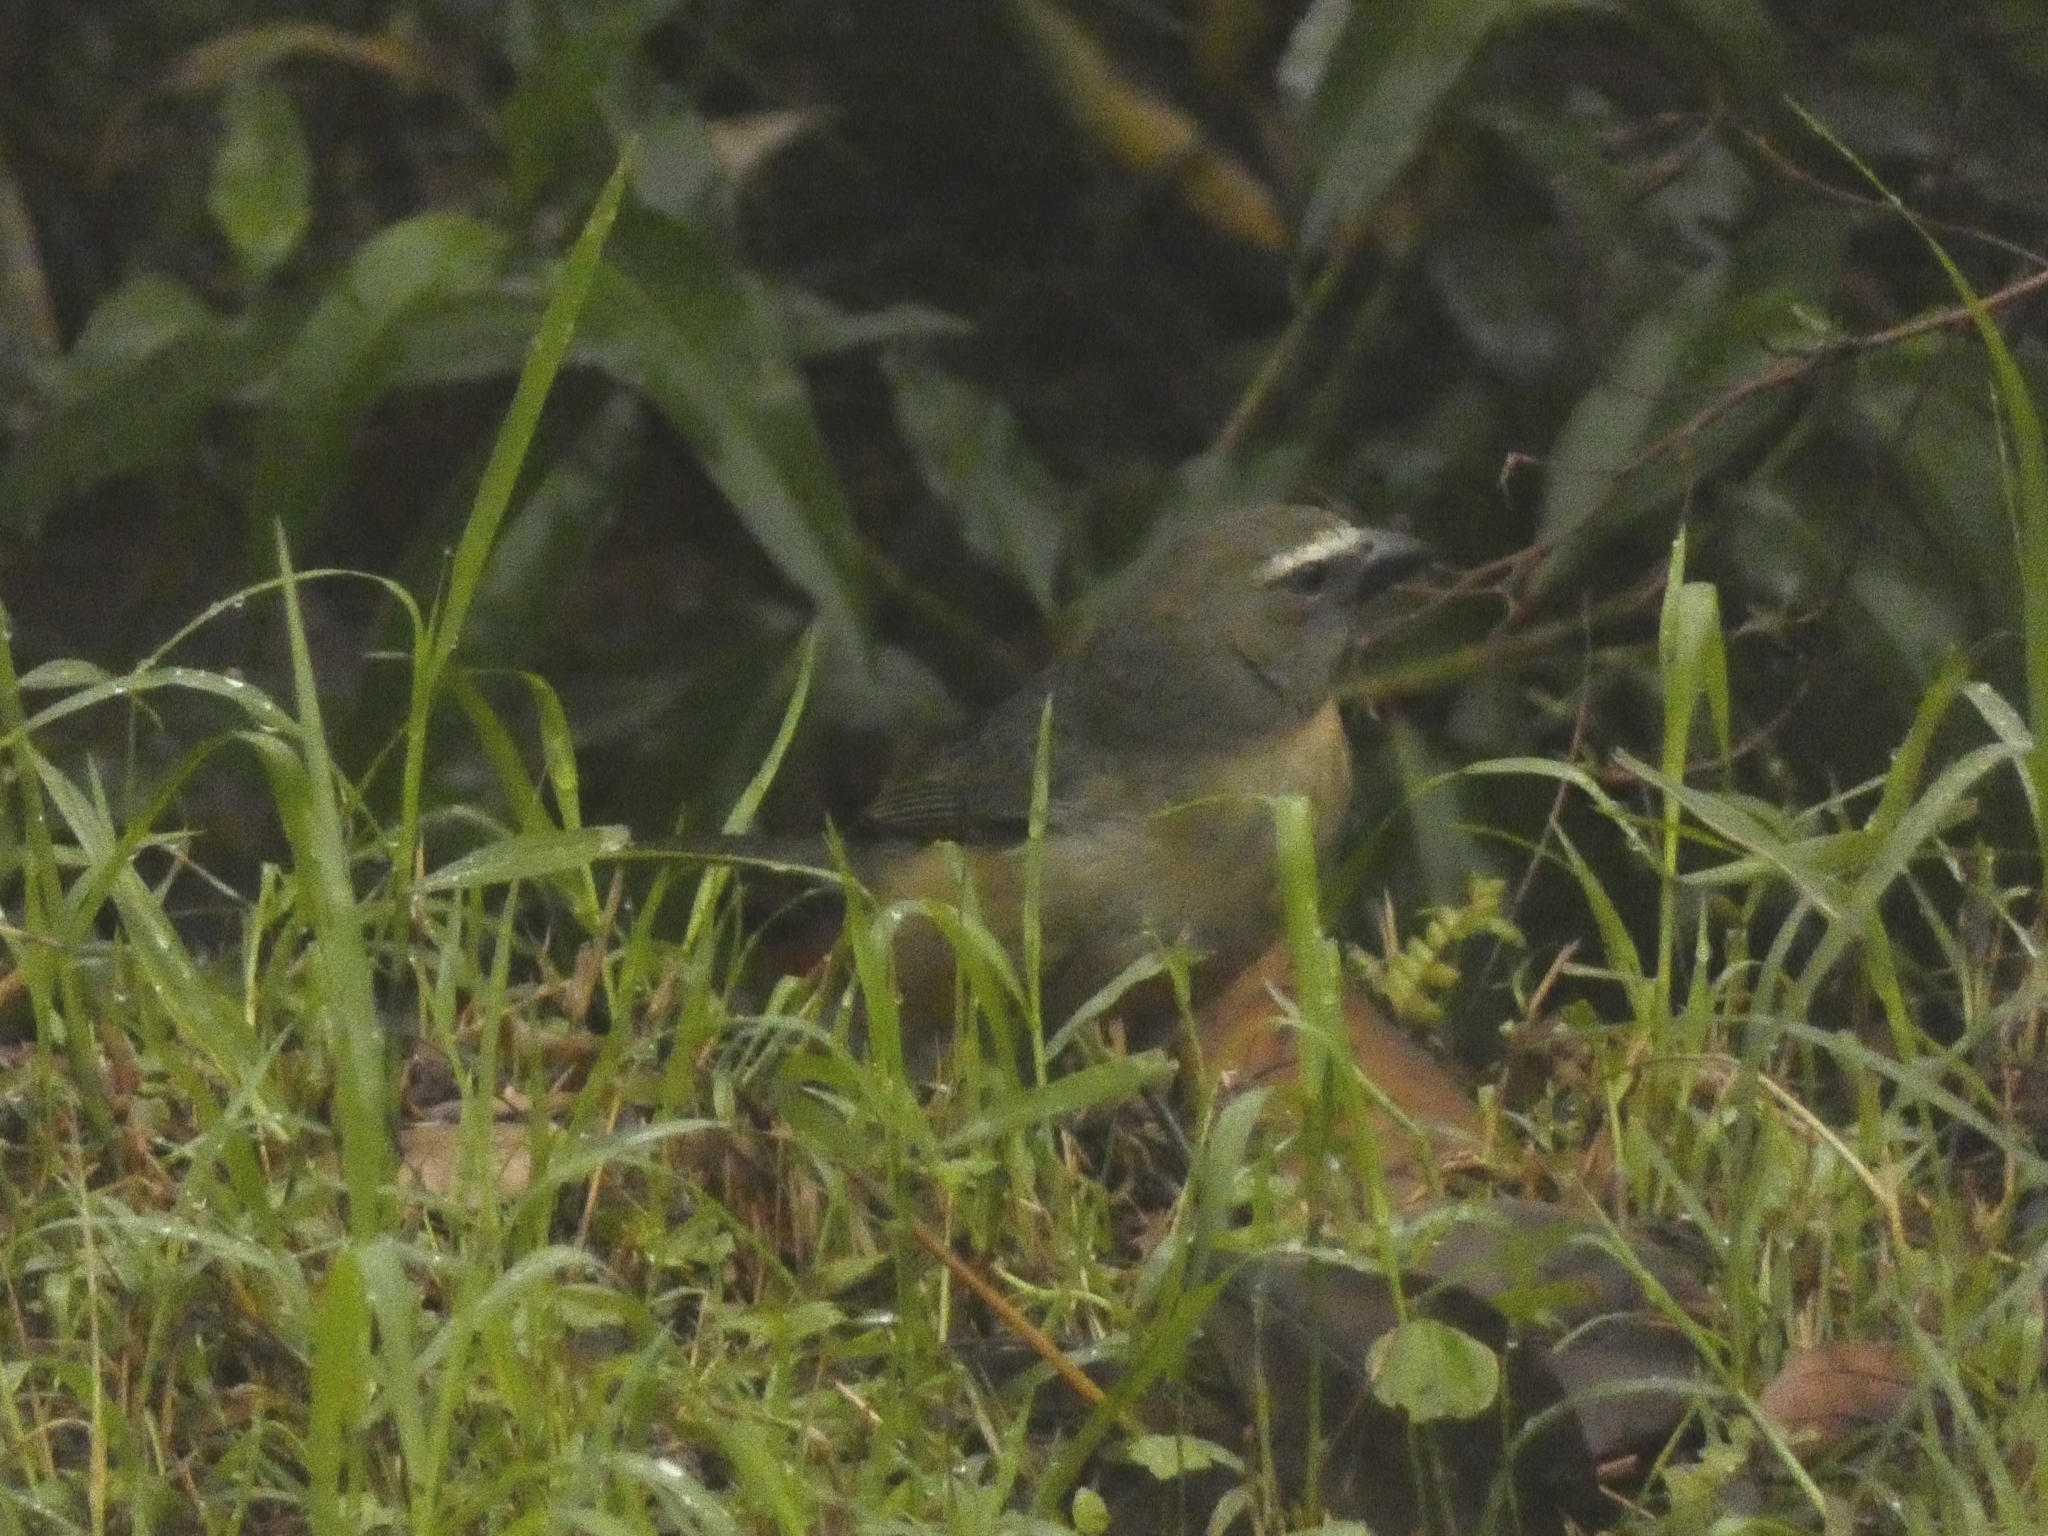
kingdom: Animalia
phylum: Chordata
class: Aves
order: Passeriformes
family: Thraupidae
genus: Saltator
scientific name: Saltator coerulescens
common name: Grayish saltator
